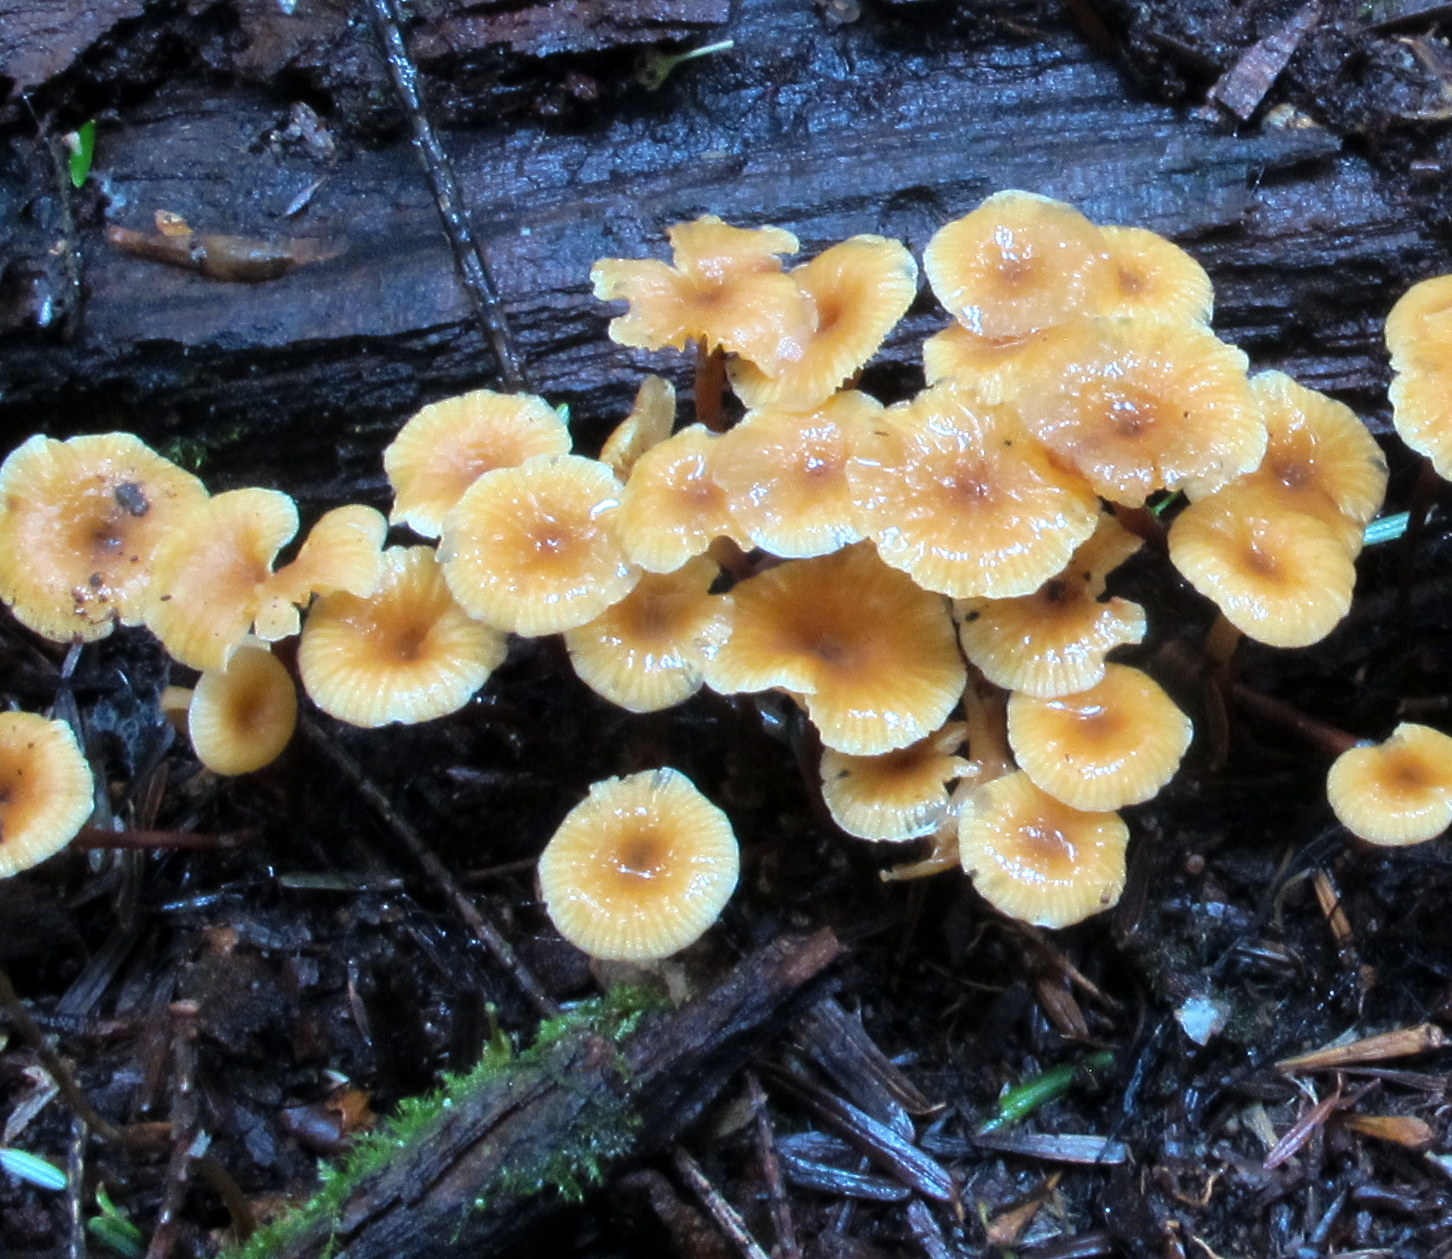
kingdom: Fungi
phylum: Basidiomycota
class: Agaricomycetes
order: Agaricales
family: Mycenaceae
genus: Xeromphalina
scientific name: Xeromphalina campanella
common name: Pinewood gingertail
